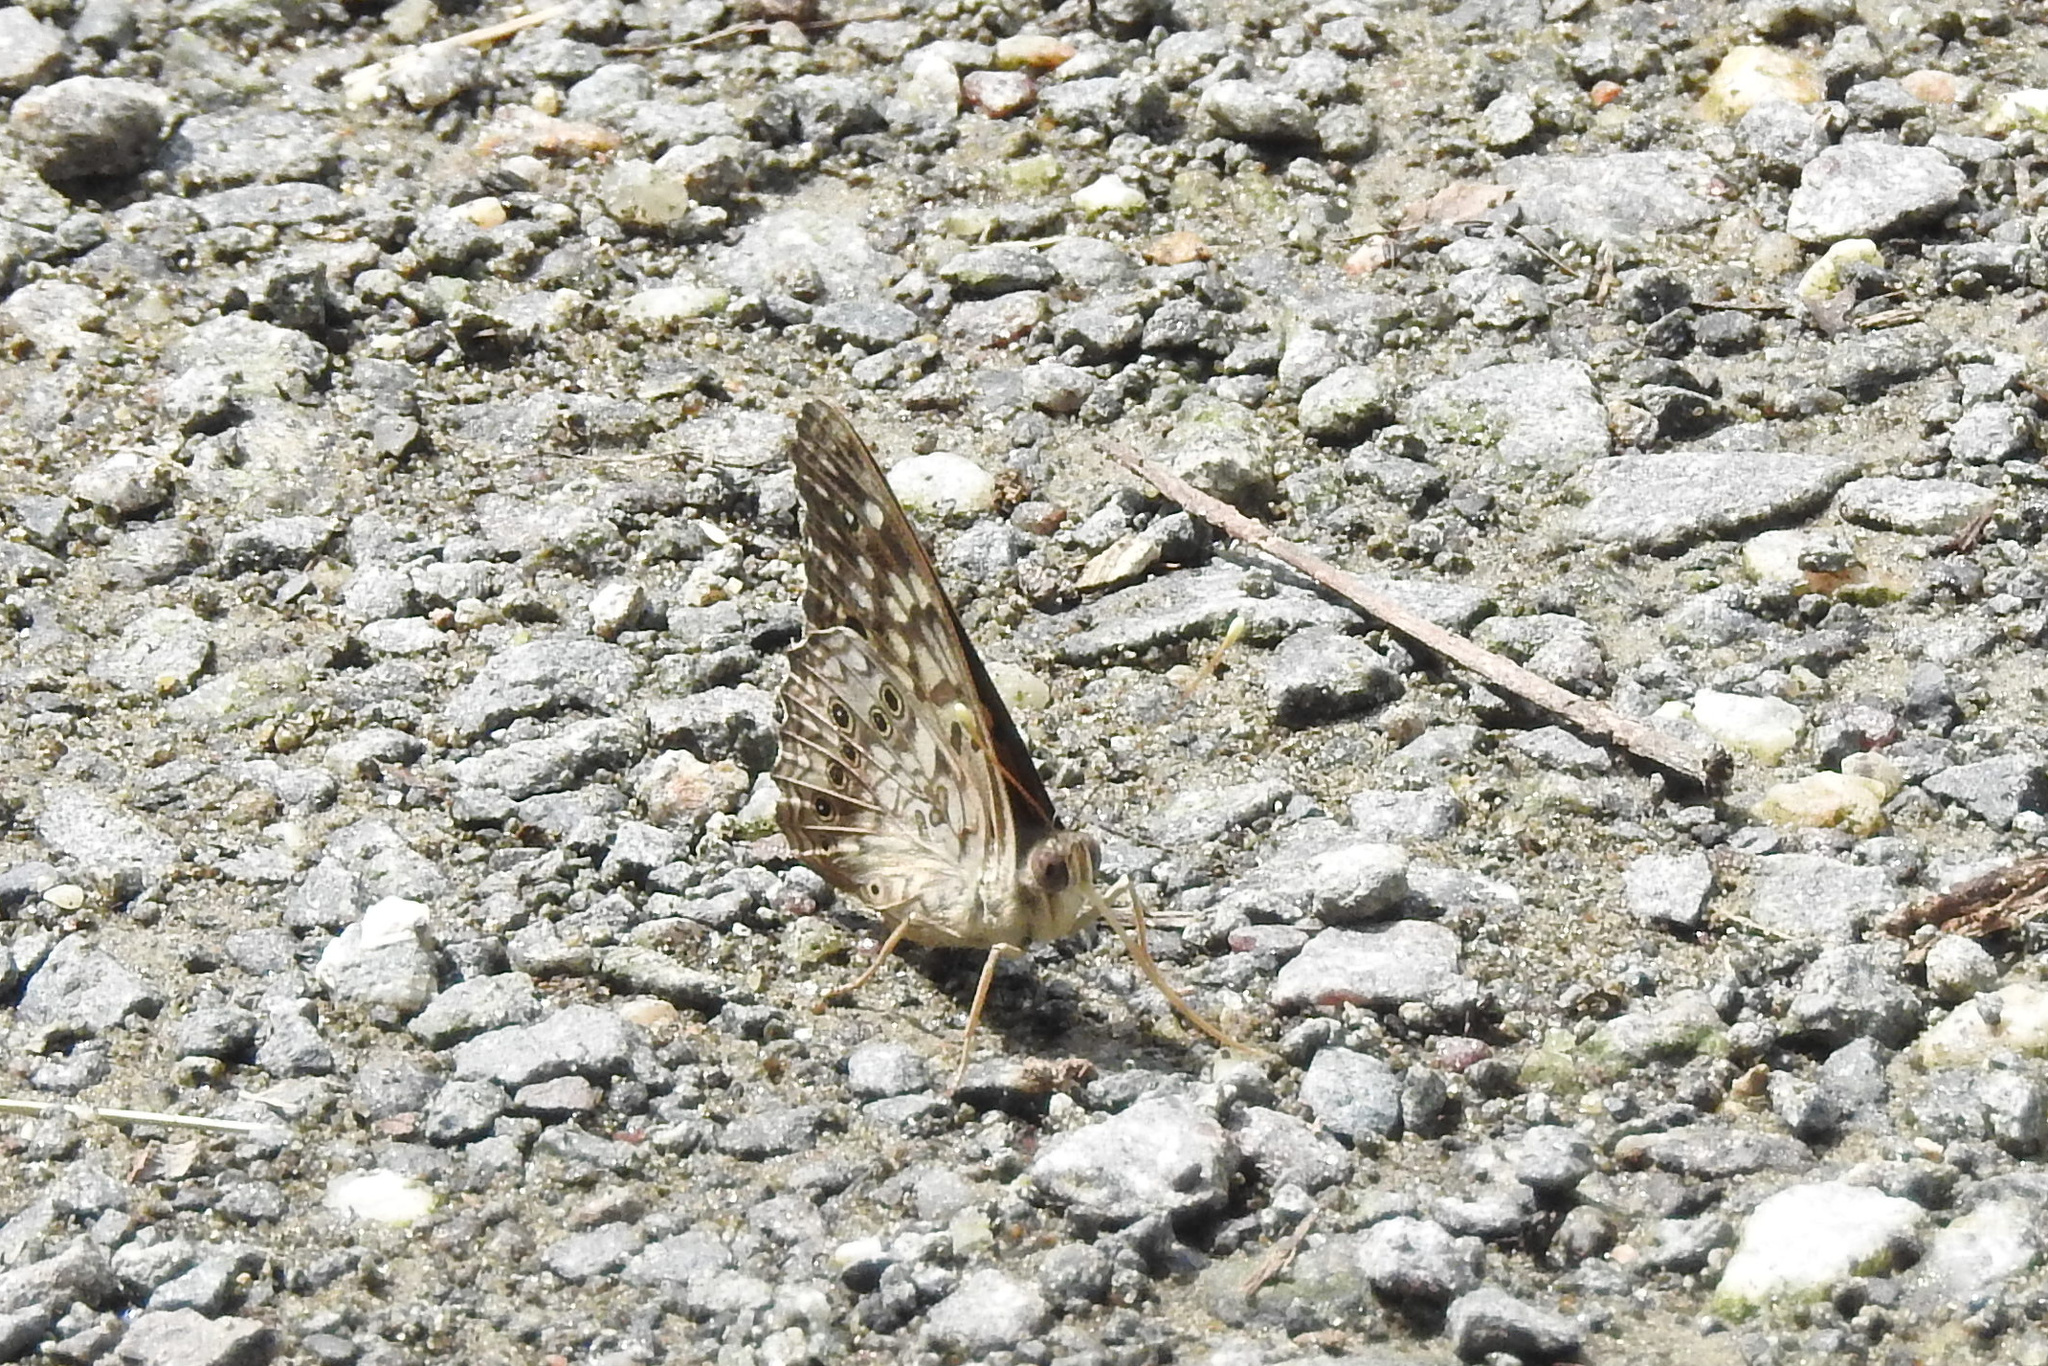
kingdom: Animalia
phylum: Arthropoda
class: Insecta
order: Lepidoptera
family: Nymphalidae
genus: Asterocampa
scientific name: Asterocampa celtis
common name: Hackberry emperor
